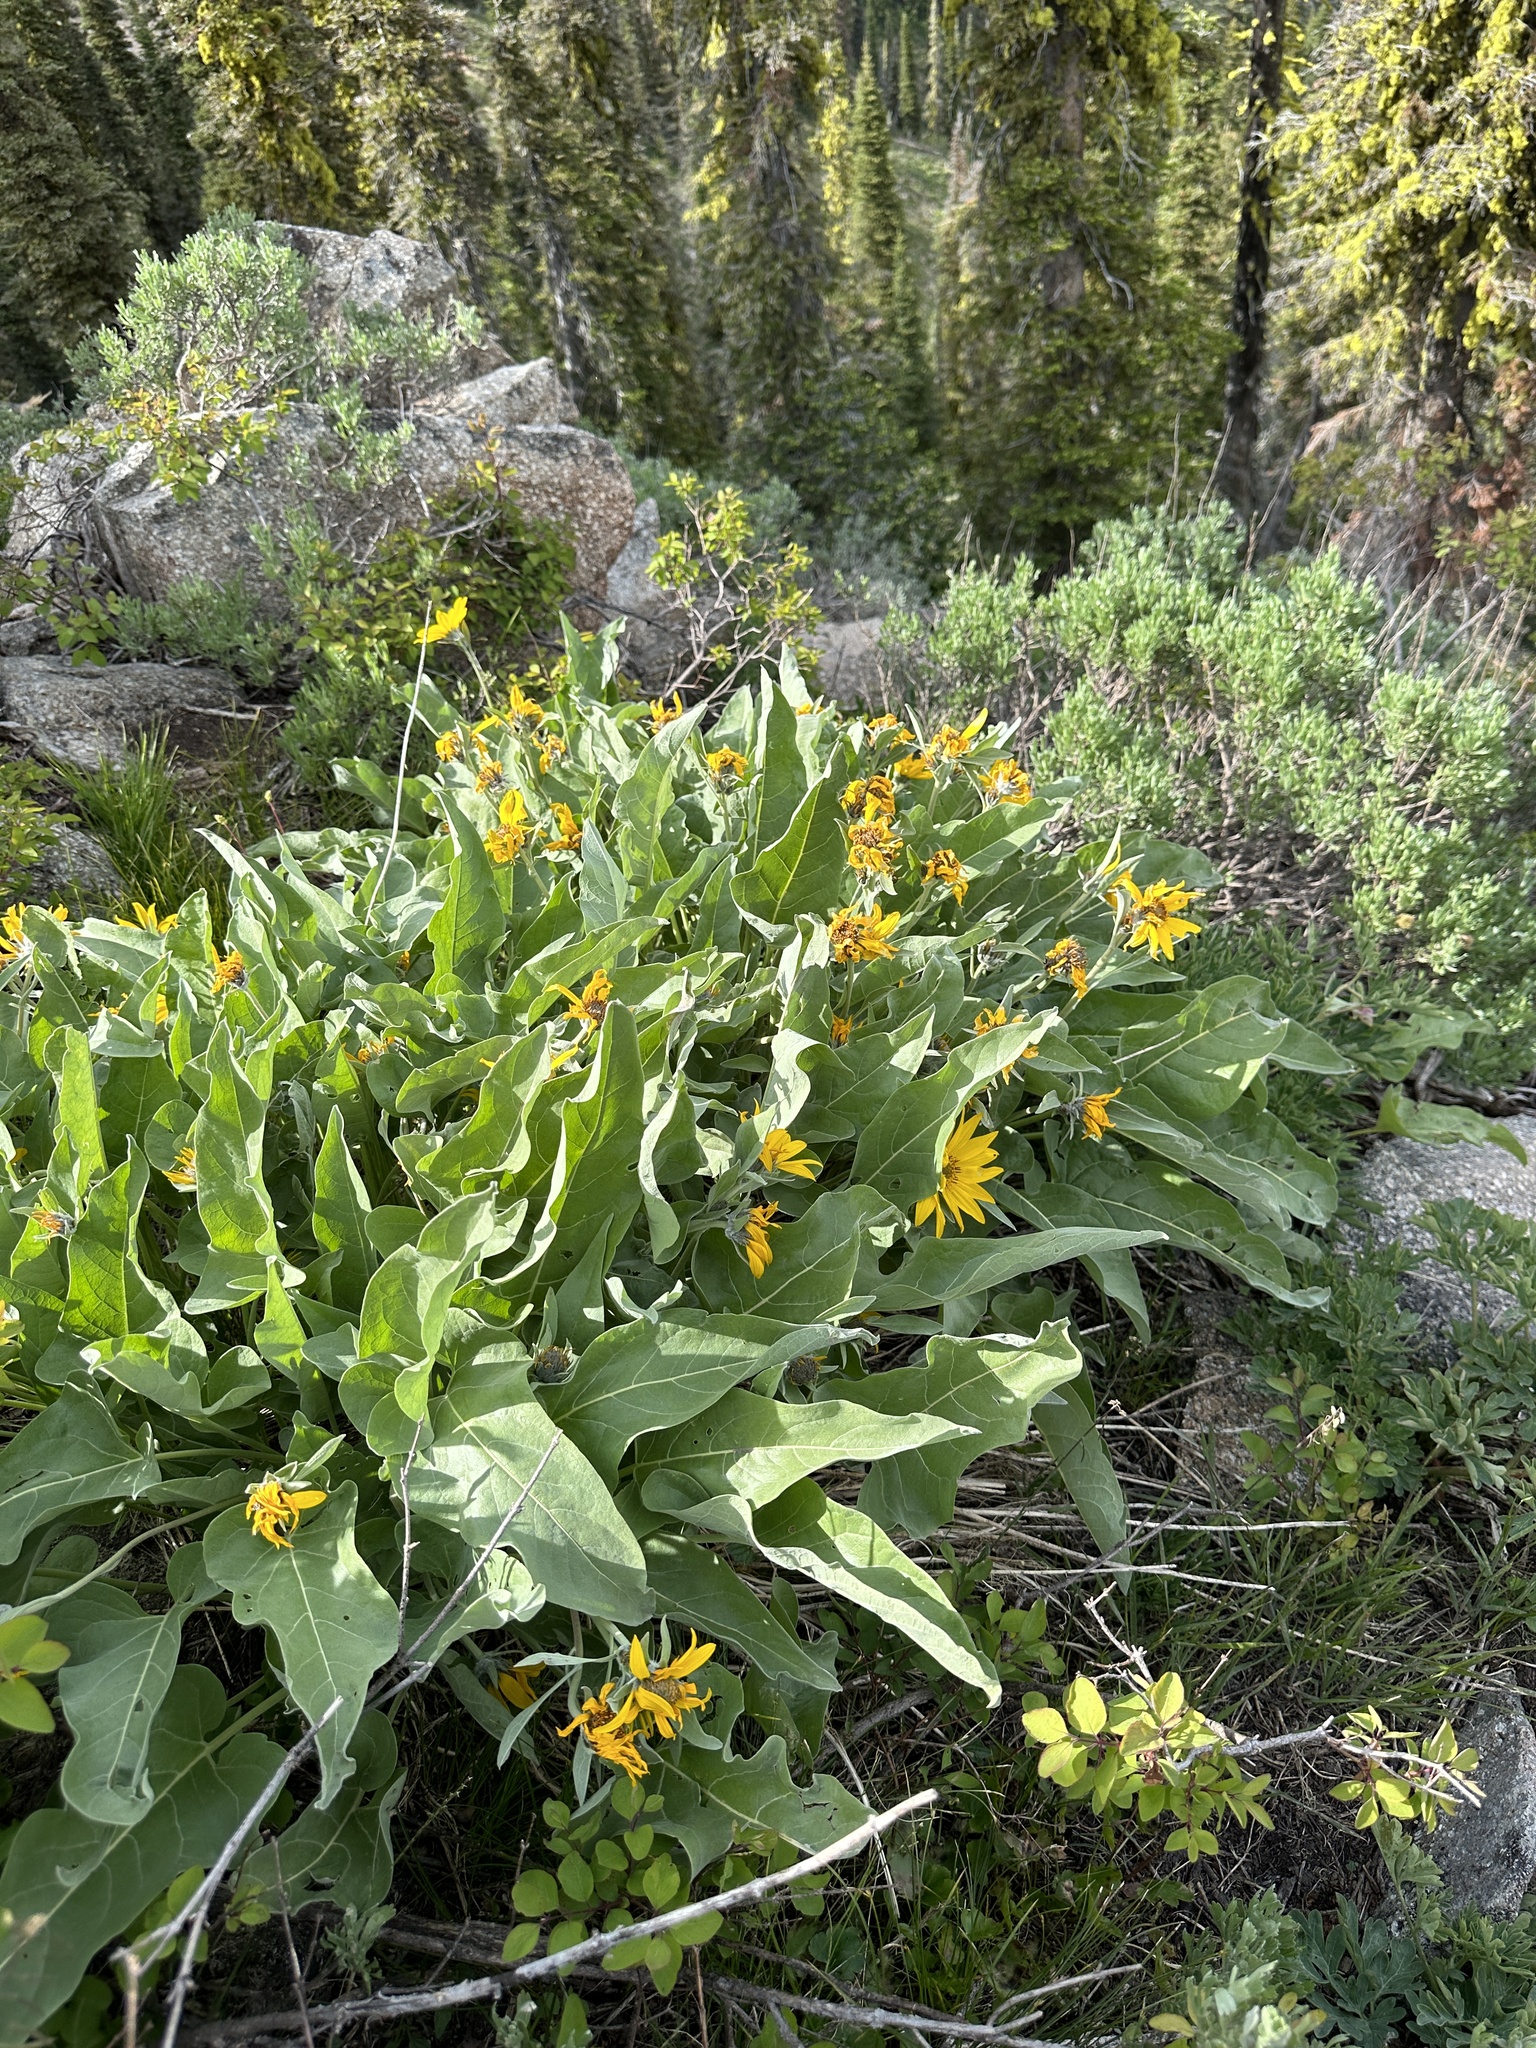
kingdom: Plantae
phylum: Tracheophyta
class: Magnoliopsida
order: Asterales
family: Asteraceae
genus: Wyethia
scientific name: Wyethia sagittata
